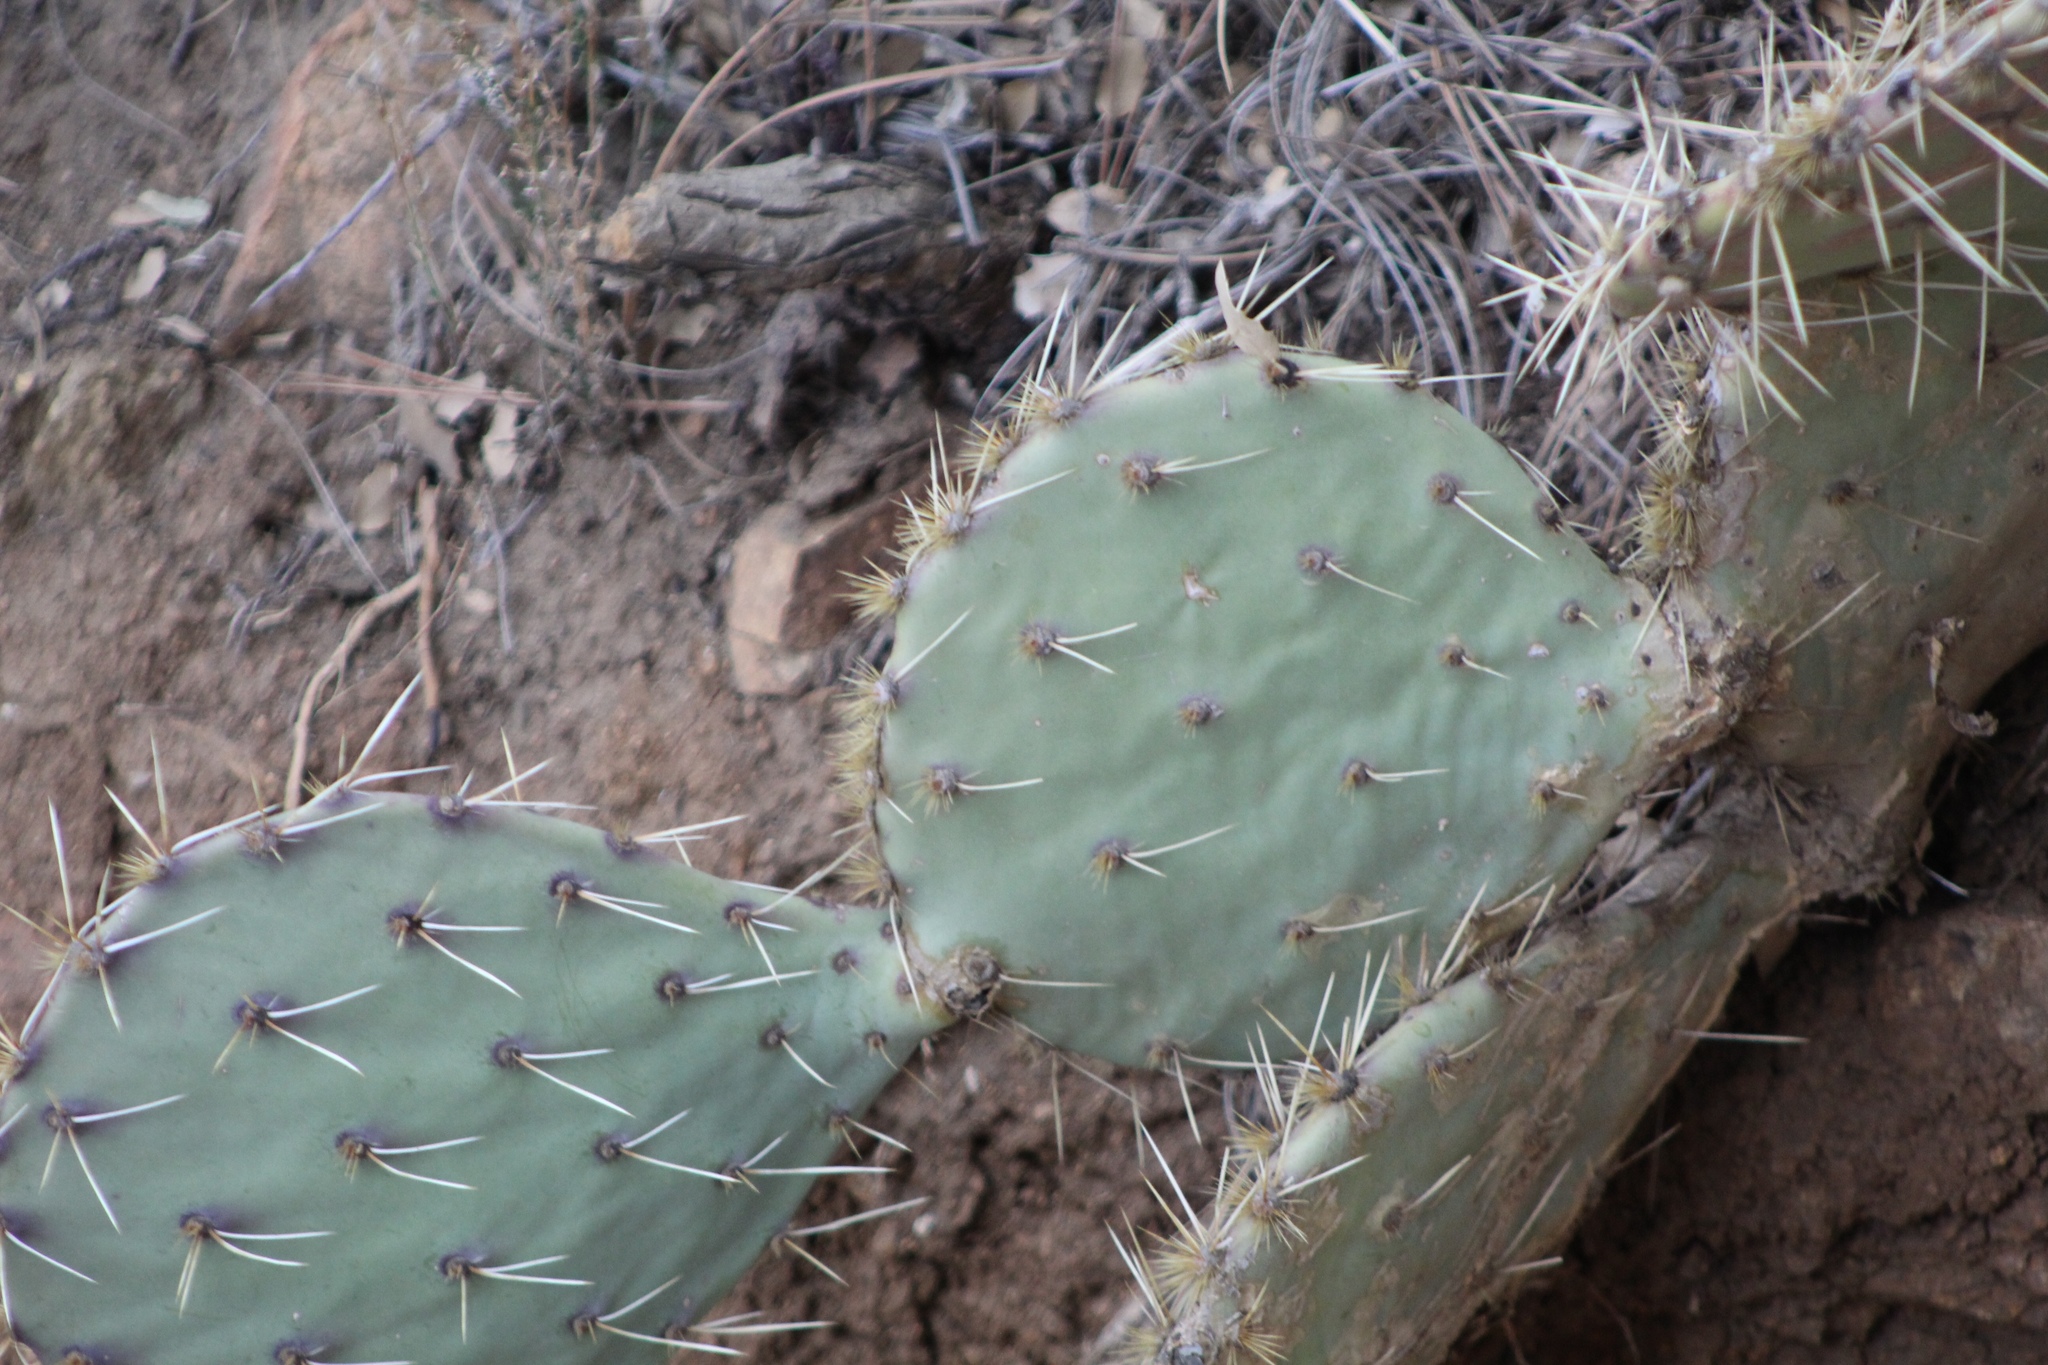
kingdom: Plantae
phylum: Tracheophyta
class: Magnoliopsida
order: Caryophyllales
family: Cactaceae
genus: Opuntia
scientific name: Opuntia engelmannii
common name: Cactus-apple
